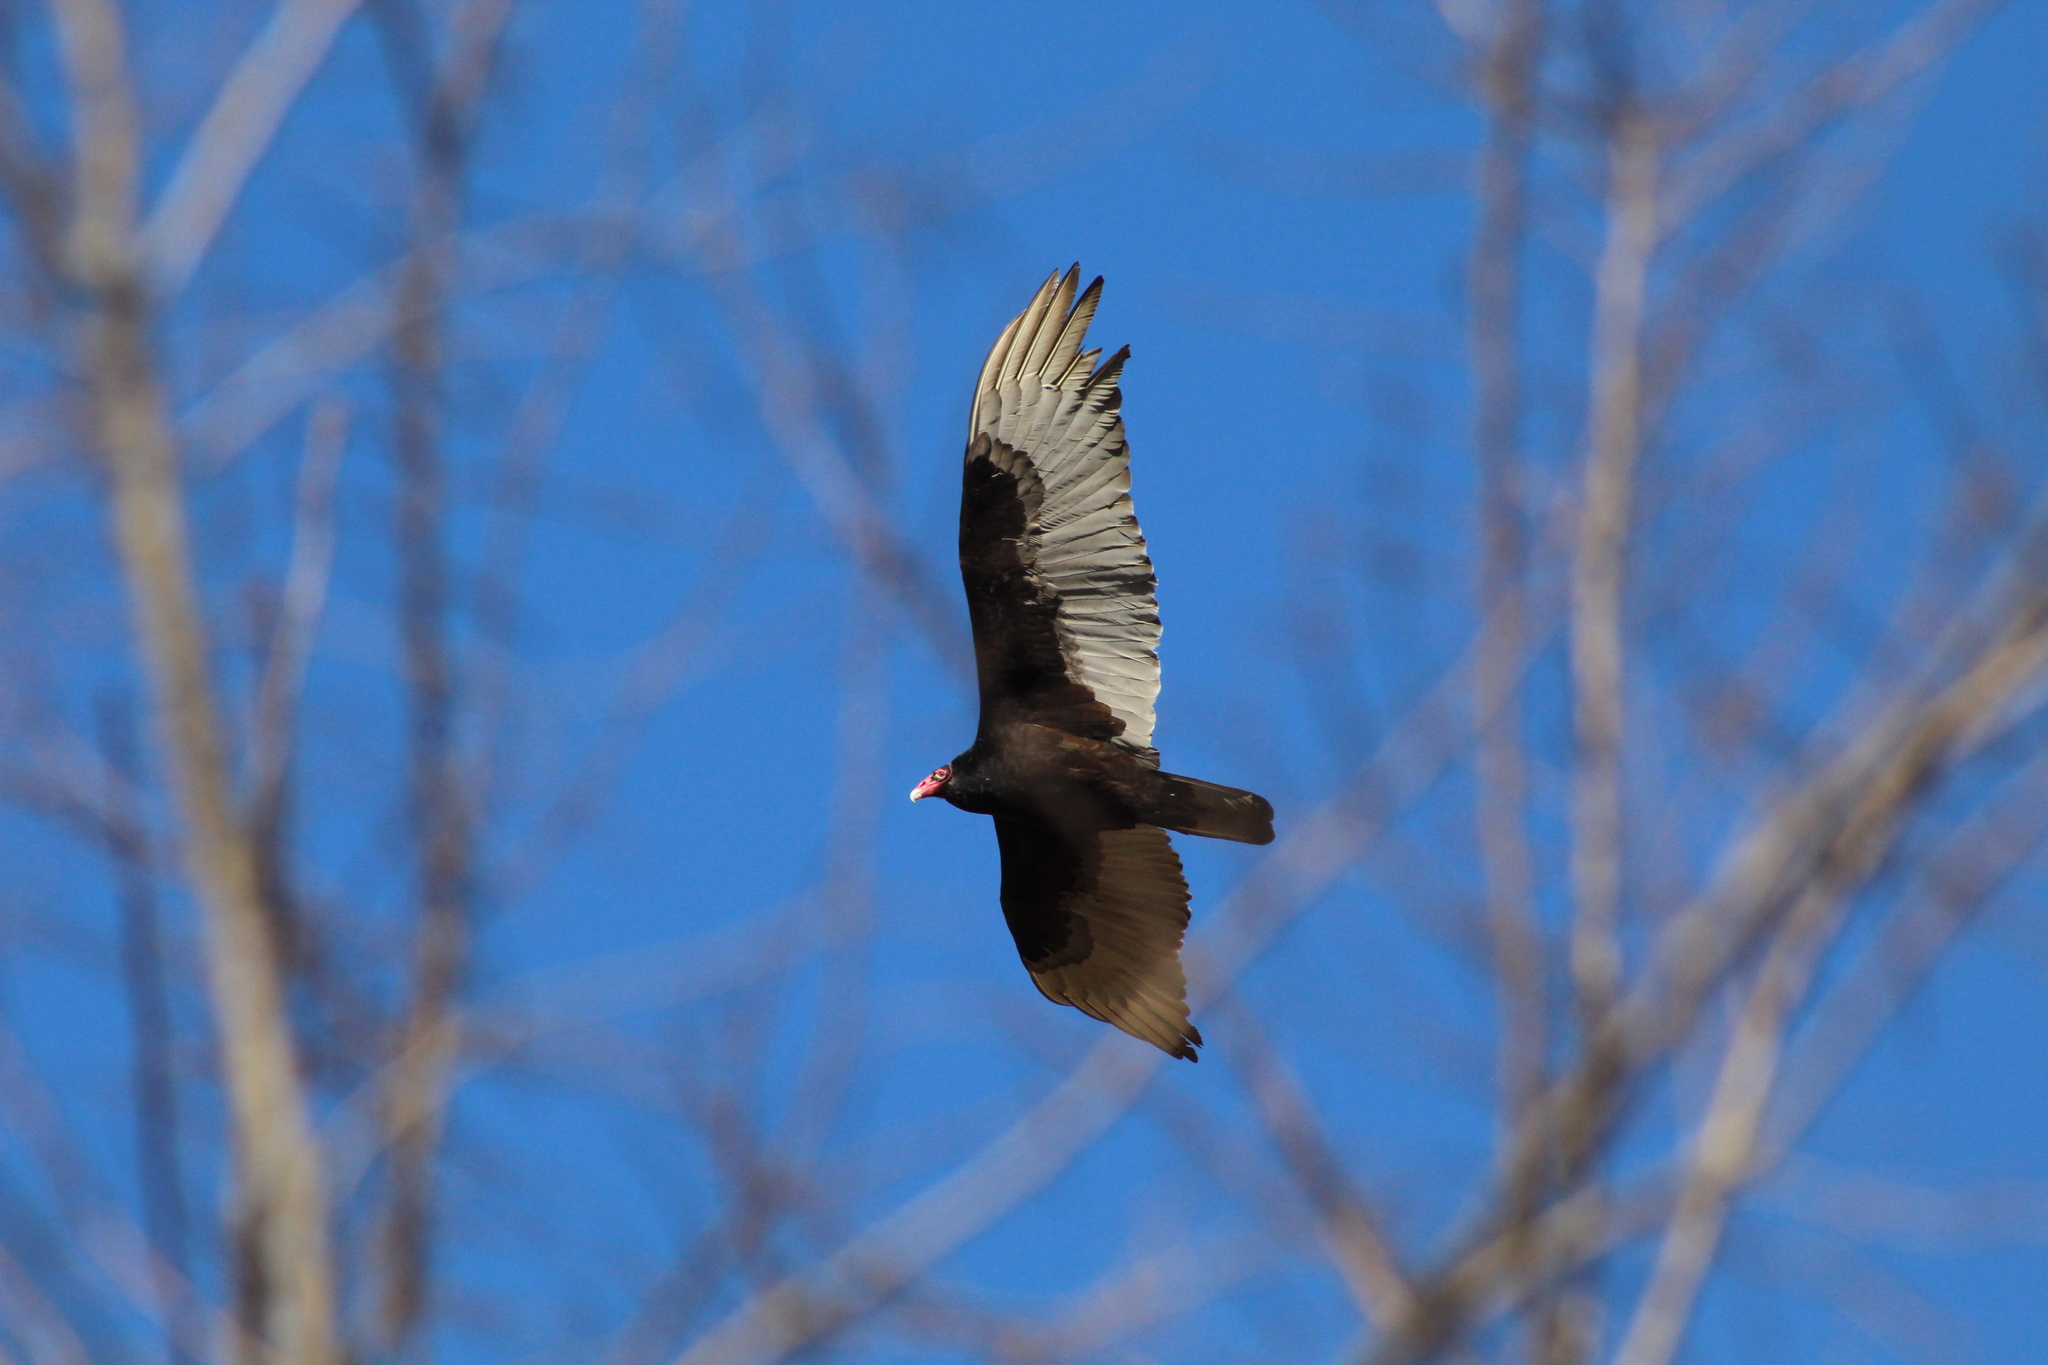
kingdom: Animalia
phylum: Chordata
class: Aves
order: Accipitriformes
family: Cathartidae
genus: Cathartes
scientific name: Cathartes aura
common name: Turkey vulture
